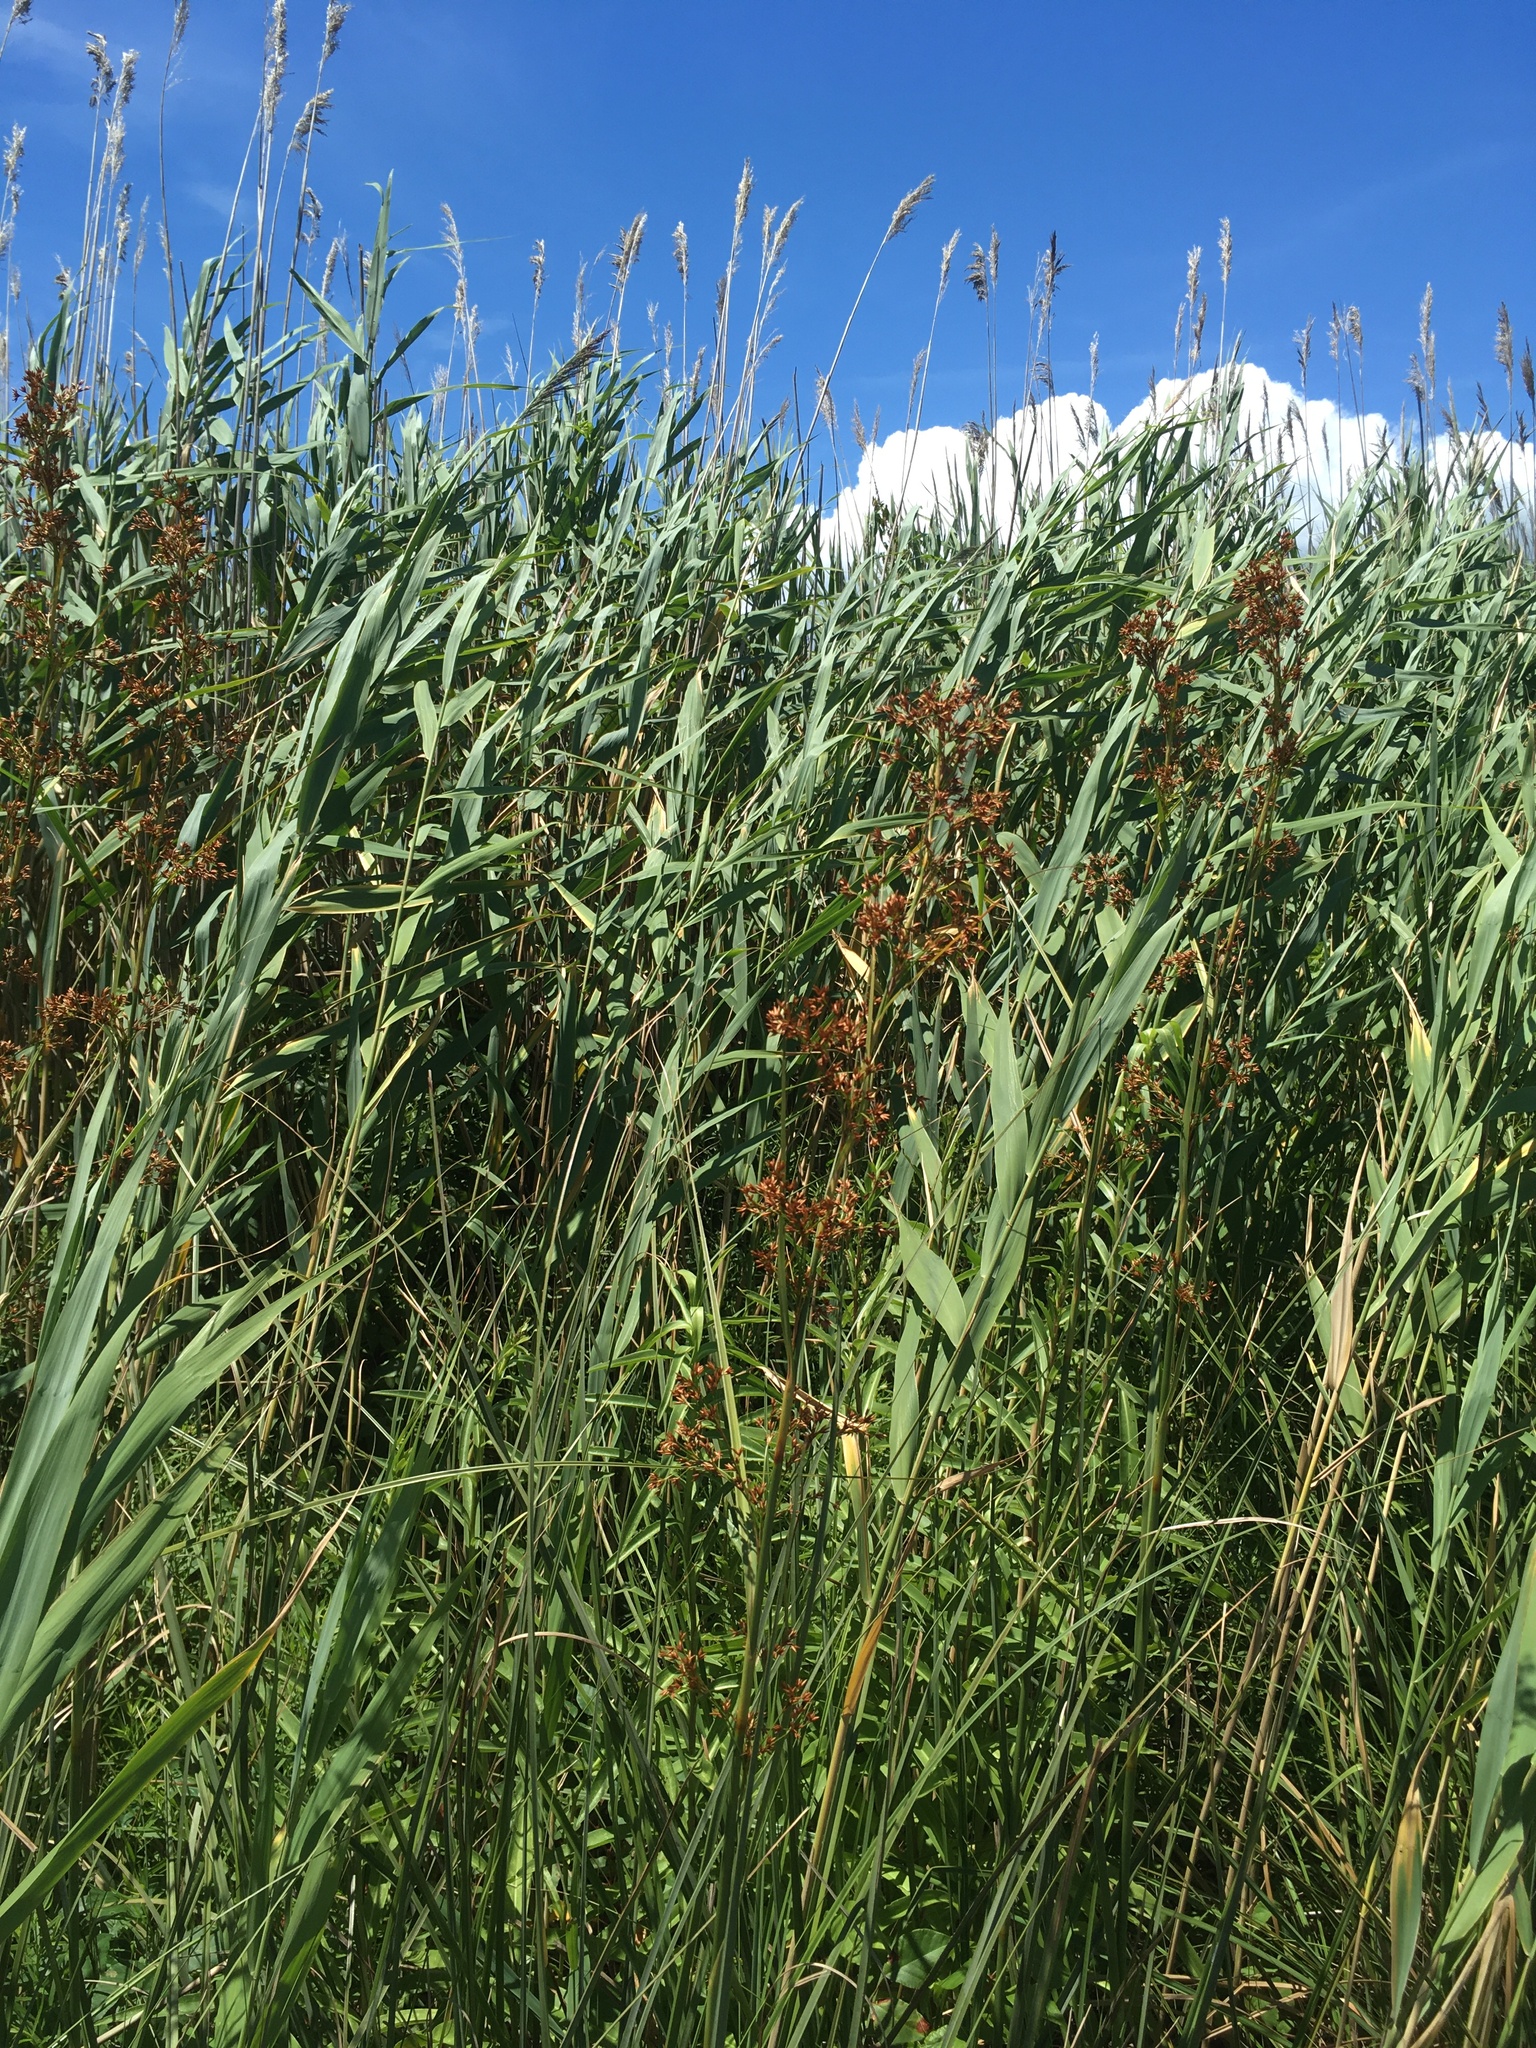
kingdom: Plantae
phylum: Tracheophyta
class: Liliopsida
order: Poales
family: Cyperaceae
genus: Cladium
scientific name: Cladium mariscus
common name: Great fen-sedge
